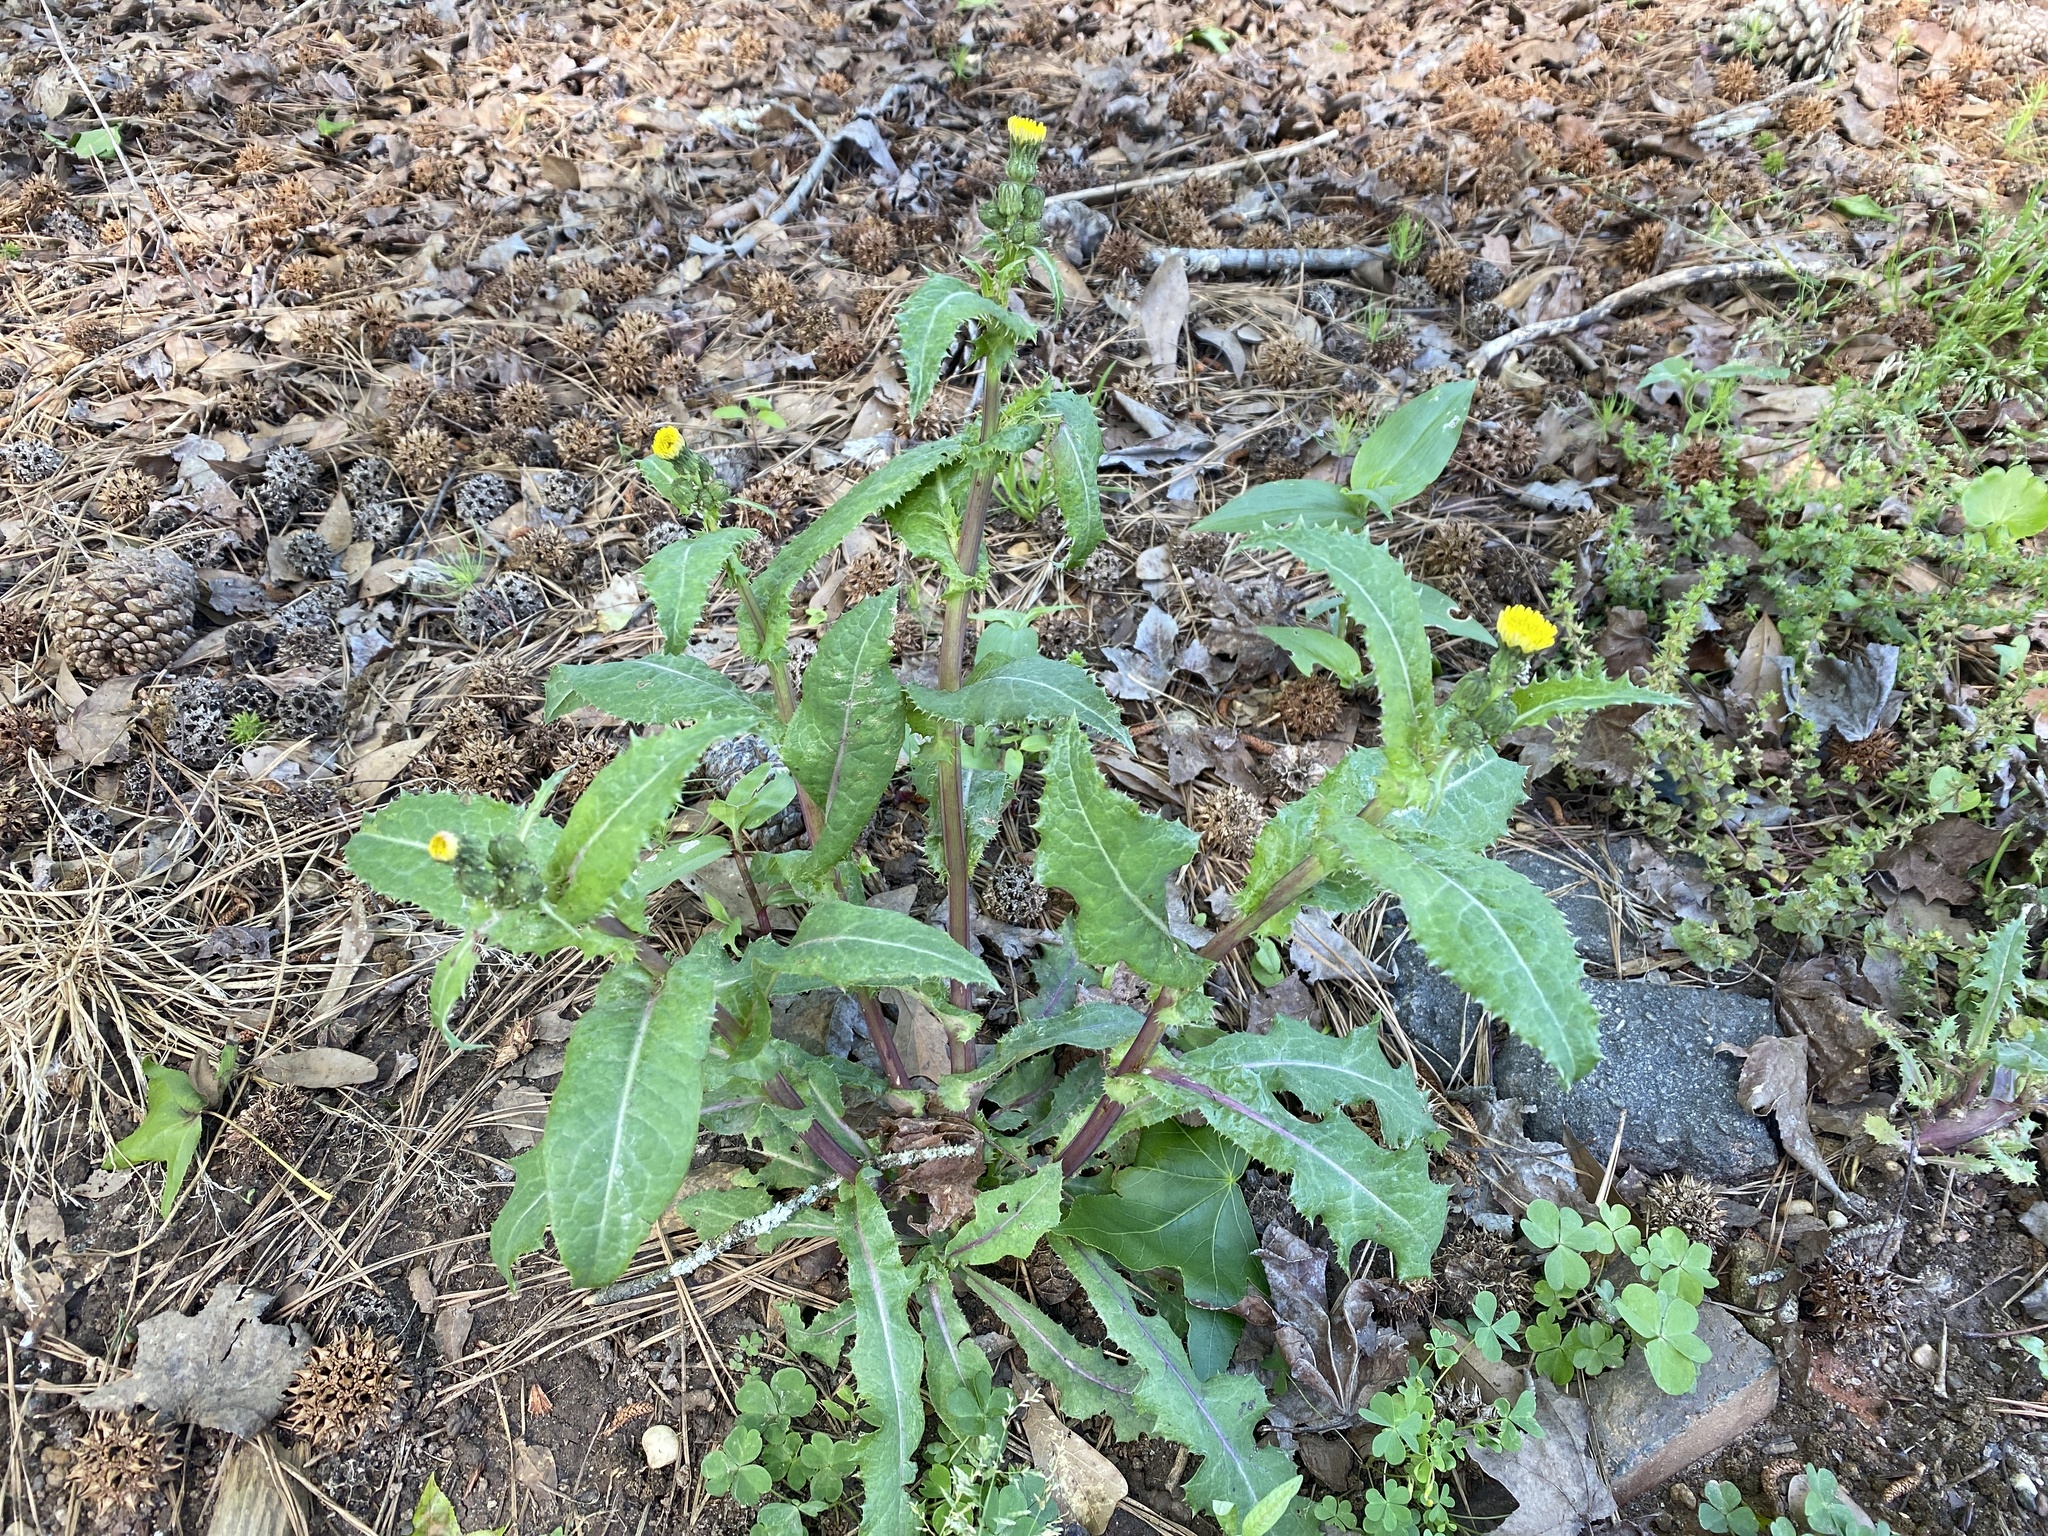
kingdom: Plantae
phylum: Tracheophyta
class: Magnoliopsida
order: Asterales
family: Asteraceae
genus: Sonchus
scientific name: Sonchus asper
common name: Prickly sow-thistle
